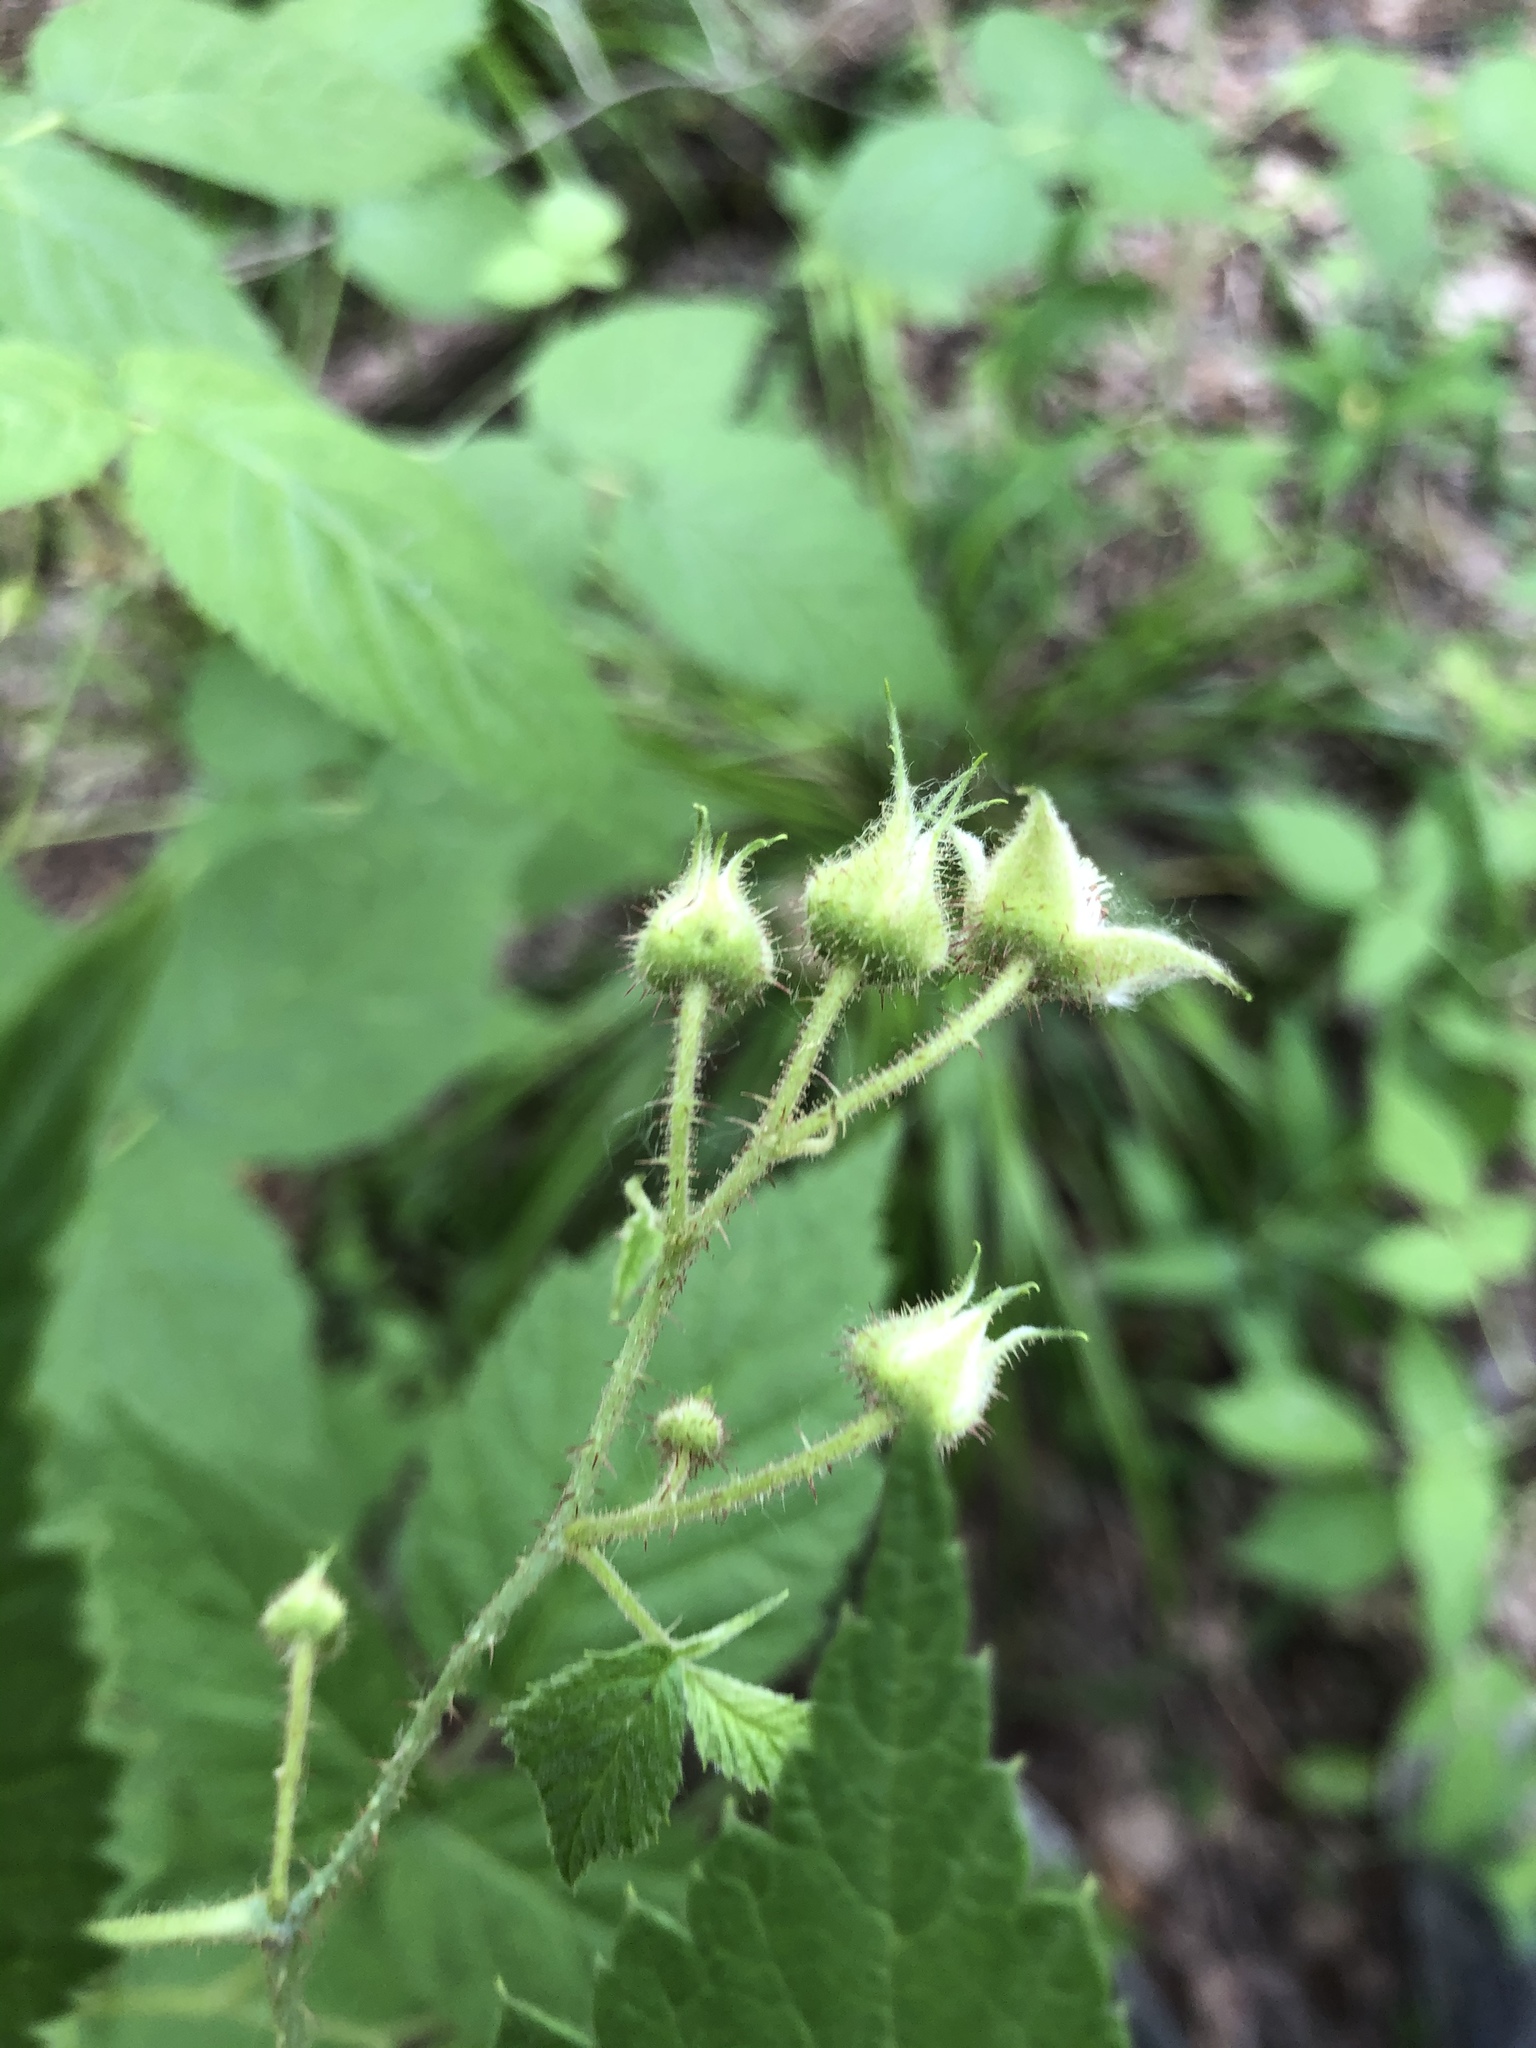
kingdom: Plantae
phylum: Tracheophyta
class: Magnoliopsida
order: Rosales
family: Rosaceae
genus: Rubus
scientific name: Rubus sachalinensis
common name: Red raspberry
